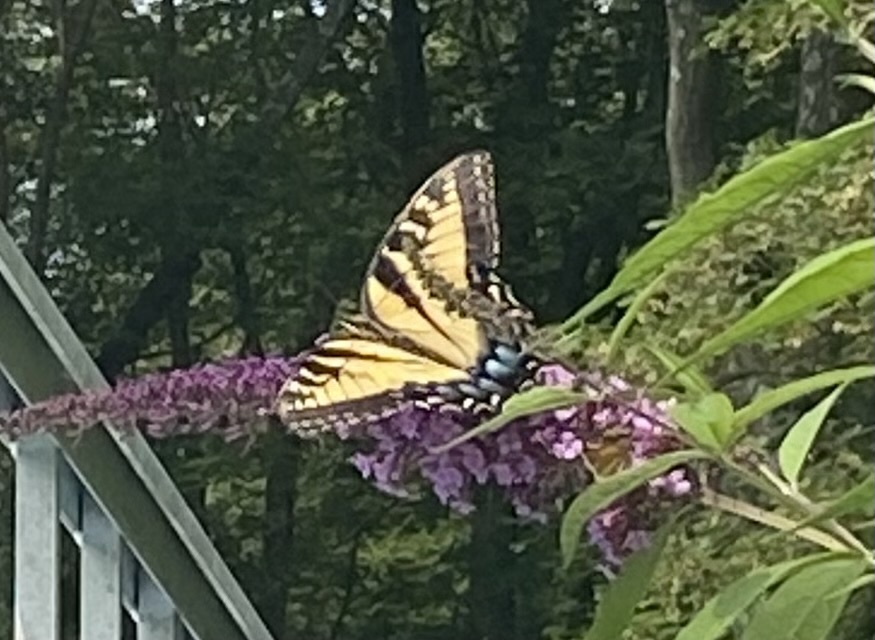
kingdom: Animalia
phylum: Arthropoda
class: Insecta
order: Lepidoptera
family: Papilionidae
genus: Papilio
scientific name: Papilio glaucus
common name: Tiger swallowtail
